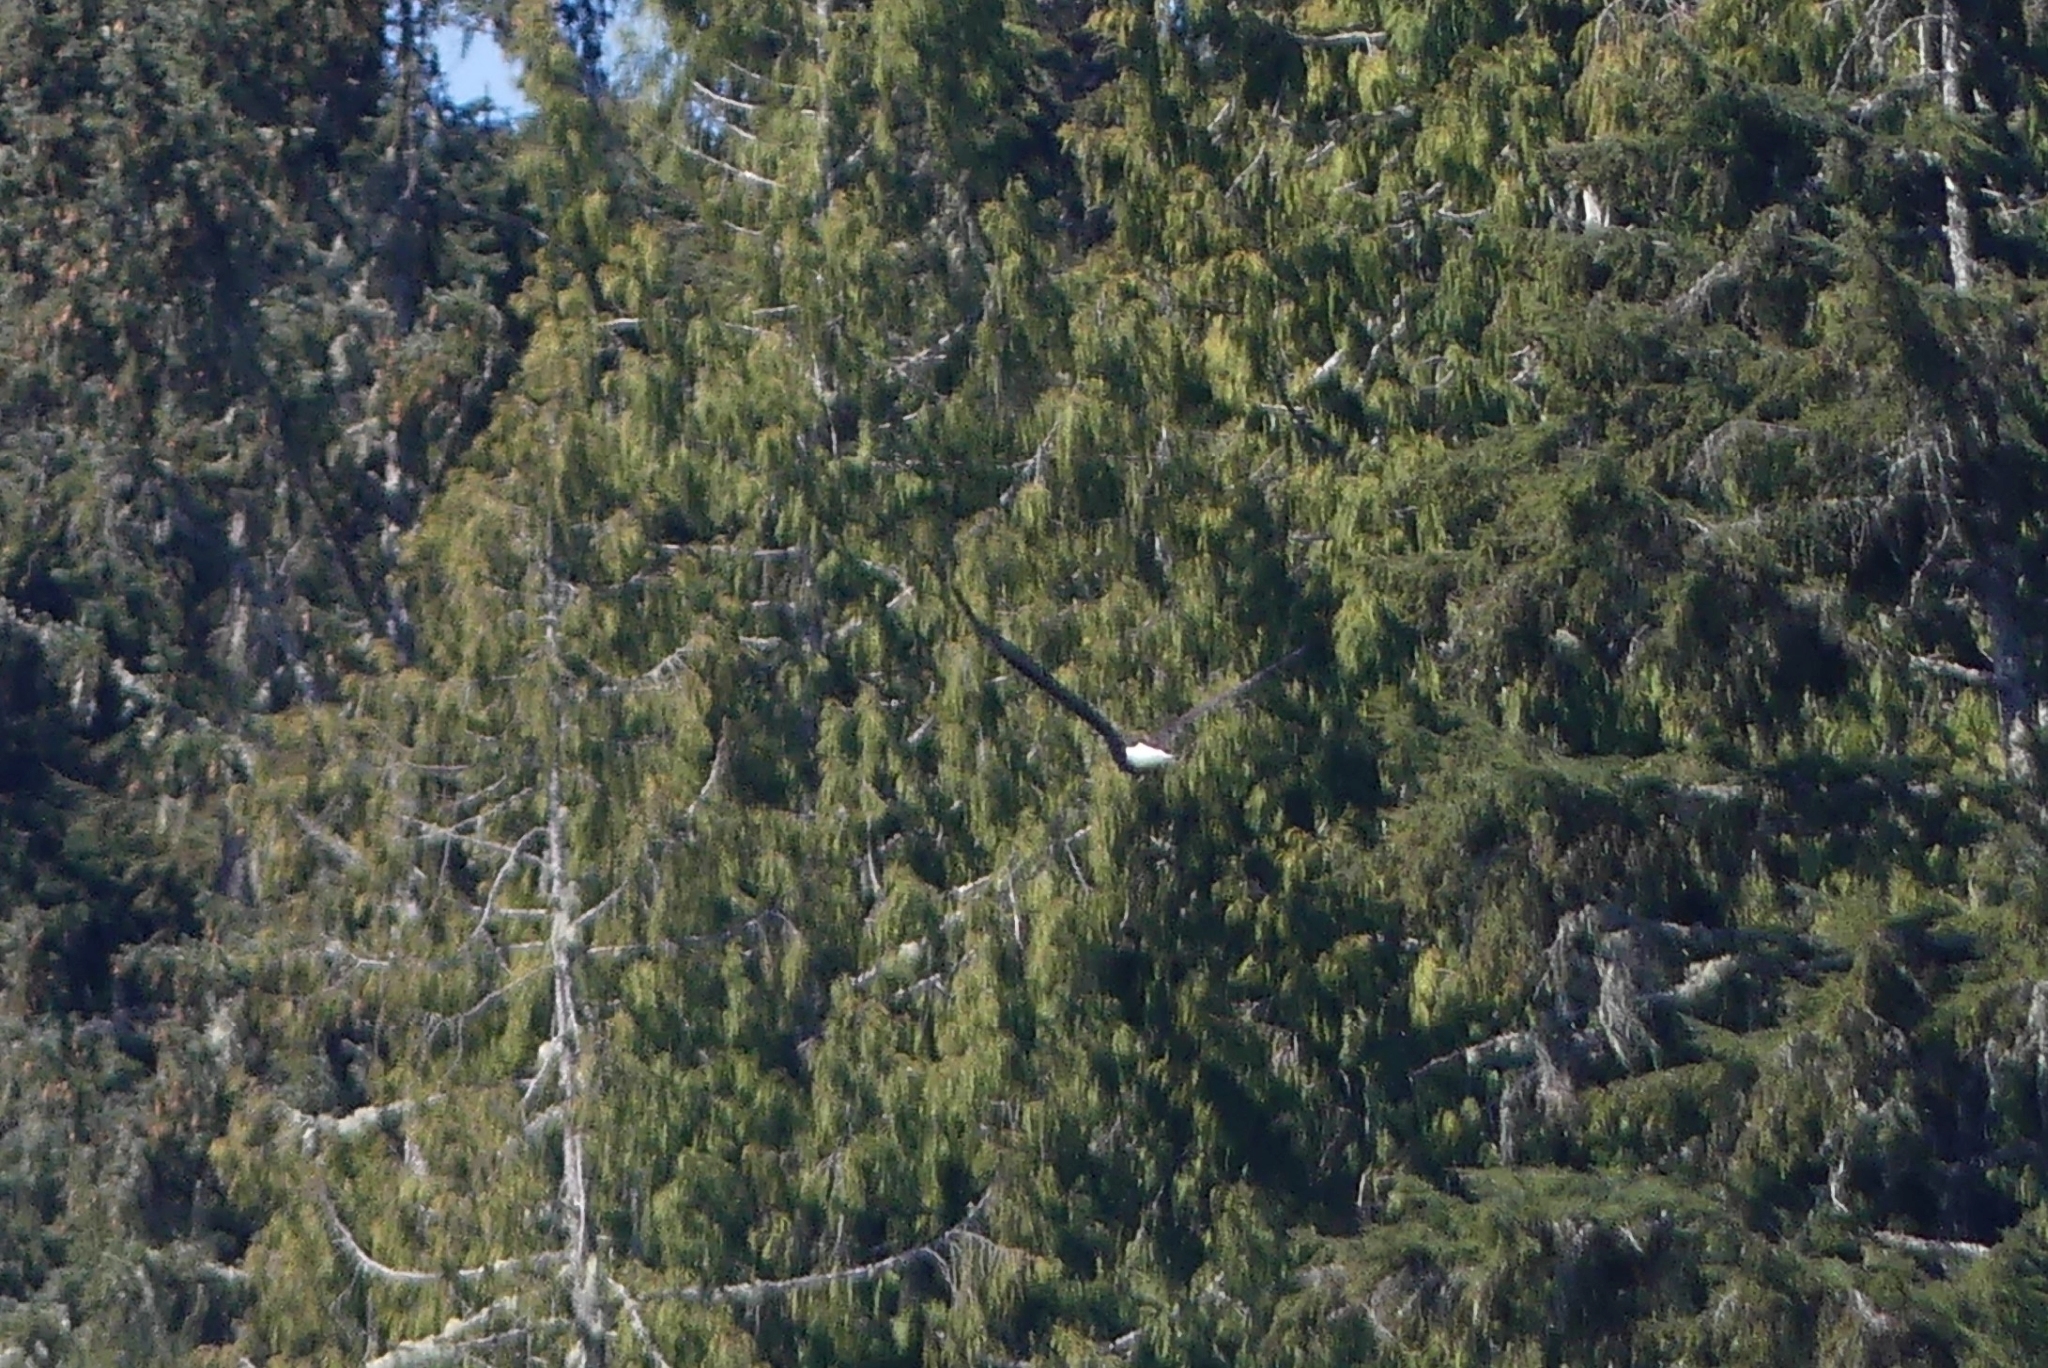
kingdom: Animalia
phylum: Chordata
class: Aves
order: Accipitriformes
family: Accipitridae
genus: Haliaeetus
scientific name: Haliaeetus leucocephalus
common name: Bald eagle
